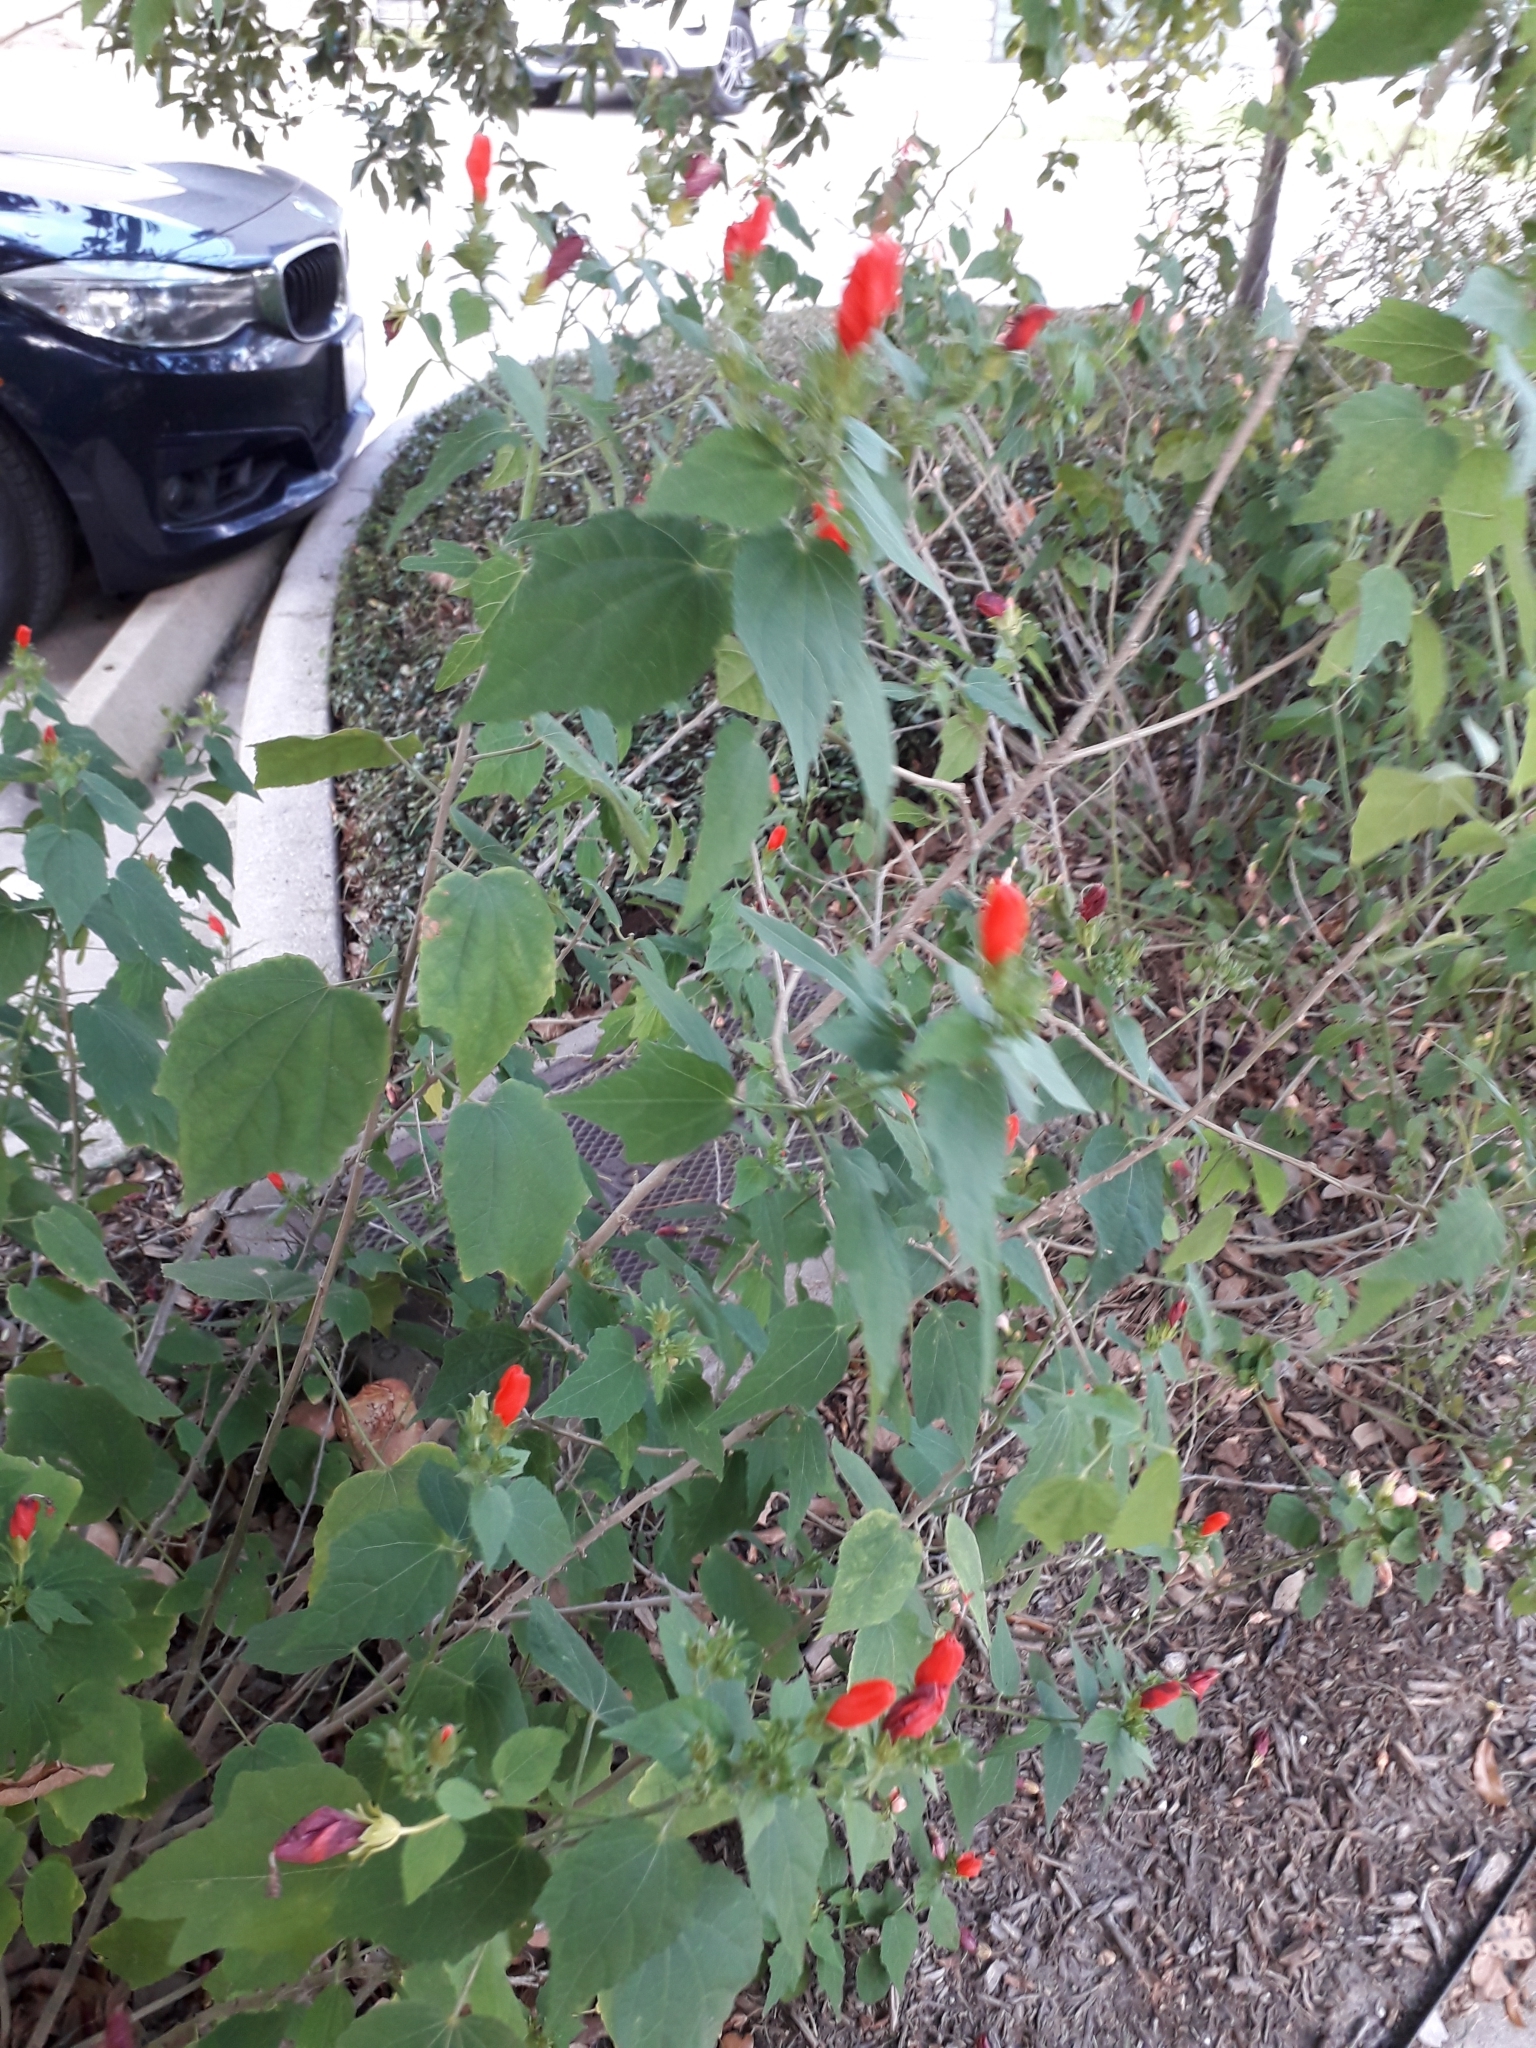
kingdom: Plantae
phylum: Tracheophyta
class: Magnoliopsida
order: Malvales
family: Malvaceae
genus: Malvaviscus
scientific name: Malvaviscus arboreus
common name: Wax mallow
